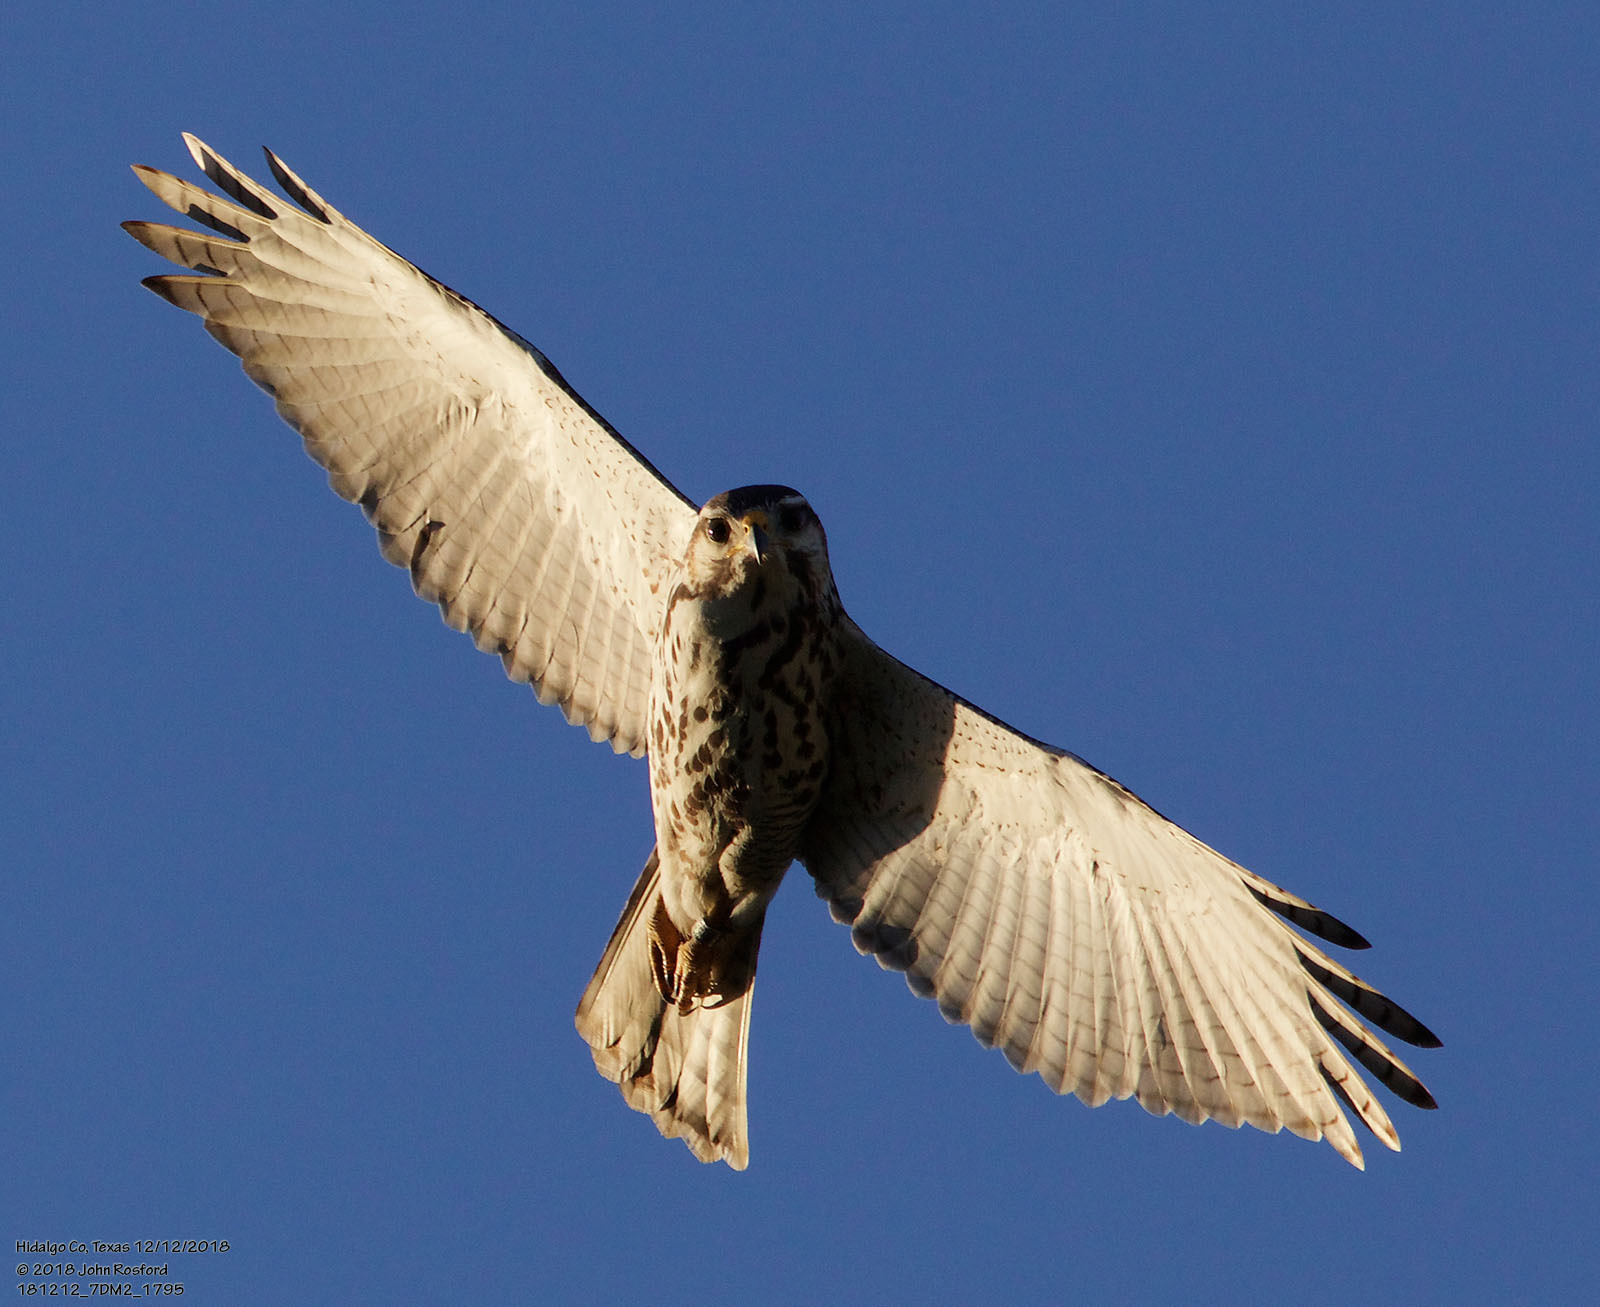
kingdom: Animalia
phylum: Chordata
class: Aves
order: Accipitriformes
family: Accipitridae
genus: Buteo
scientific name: Buteo nitidus
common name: Grey-lined hawk
